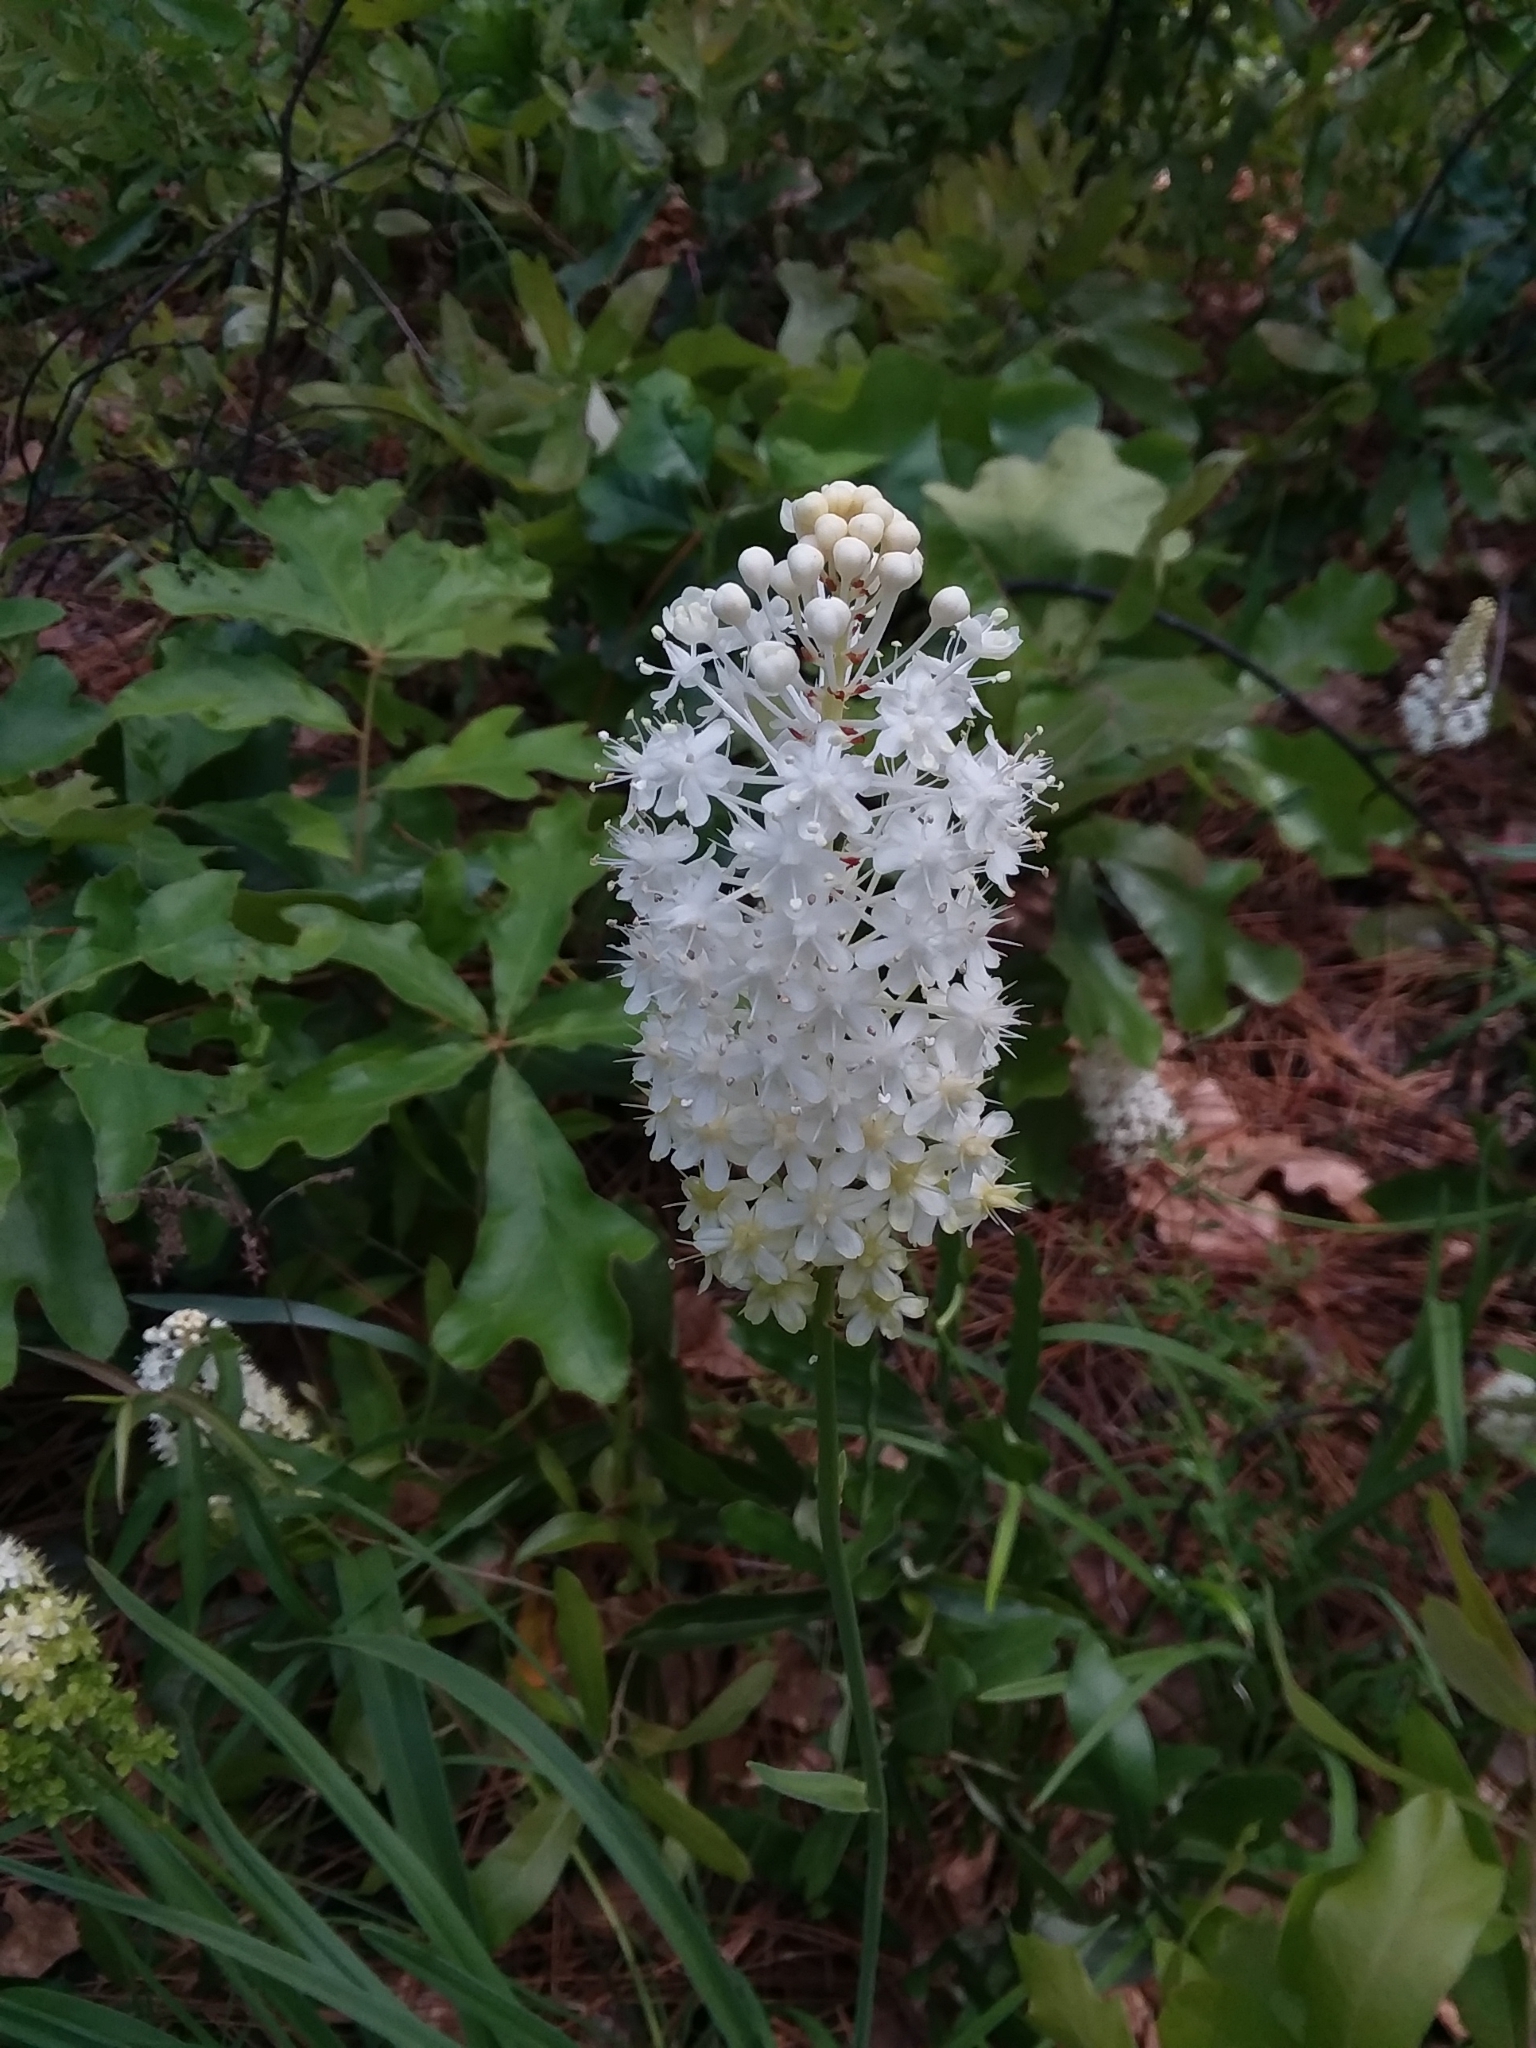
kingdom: Plantae
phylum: Tracheophyta
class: Liliopsida
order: Liliales
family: Melanthiaceae
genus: Amianthium
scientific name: Amianthium muscitoxicum
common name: Fly-poison
